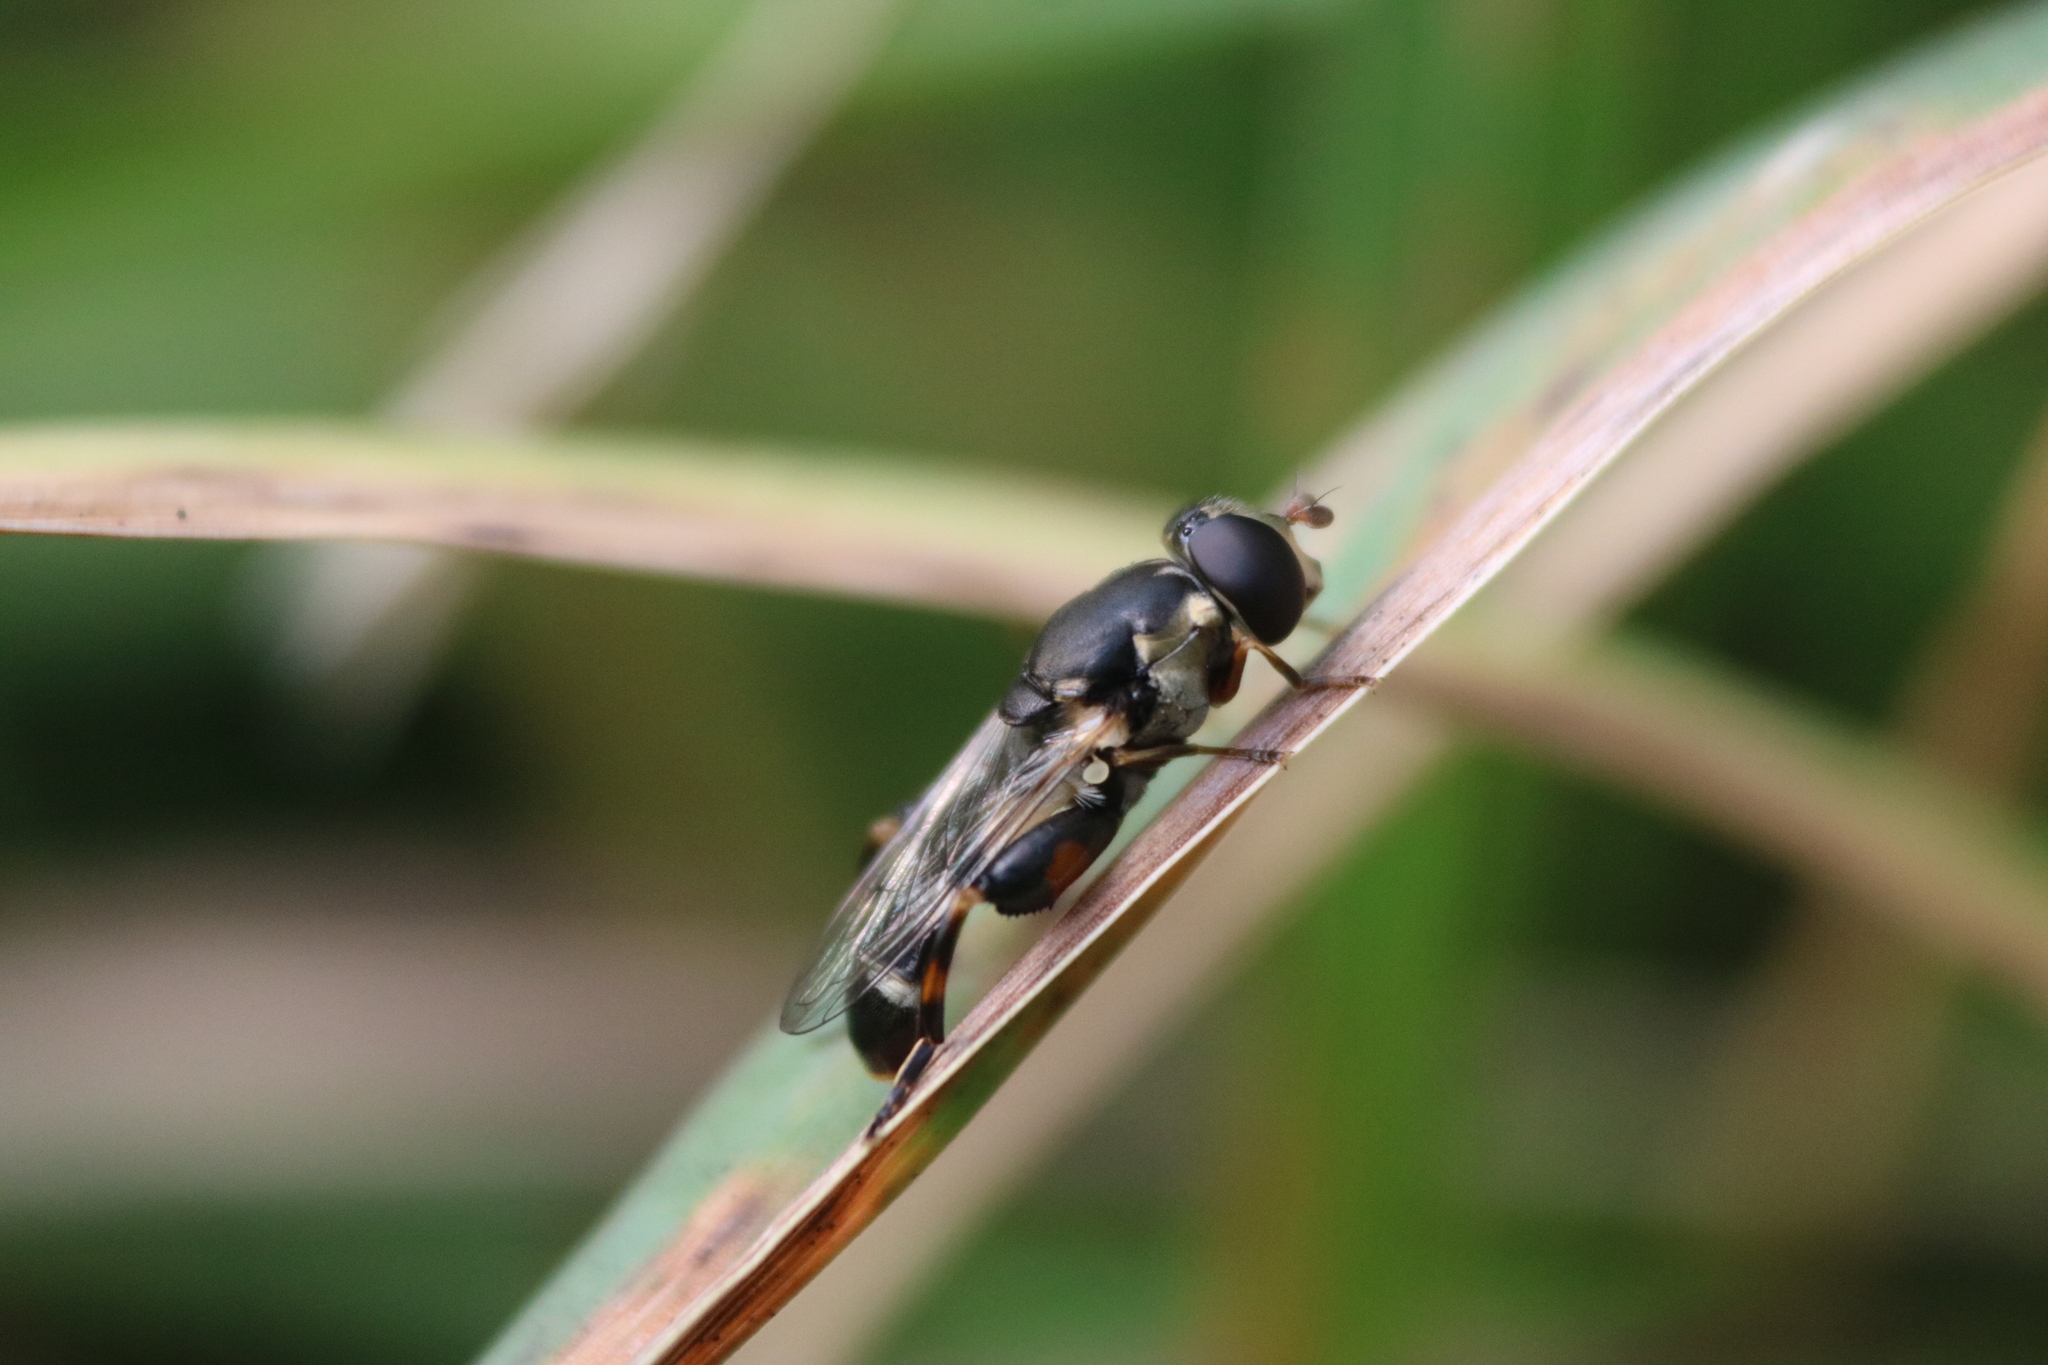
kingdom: Animalia
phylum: Arthropoda
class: Insecta
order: Diptera
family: Syrphidae
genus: Syritta
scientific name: Syritta pipiens
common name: Hover fly
